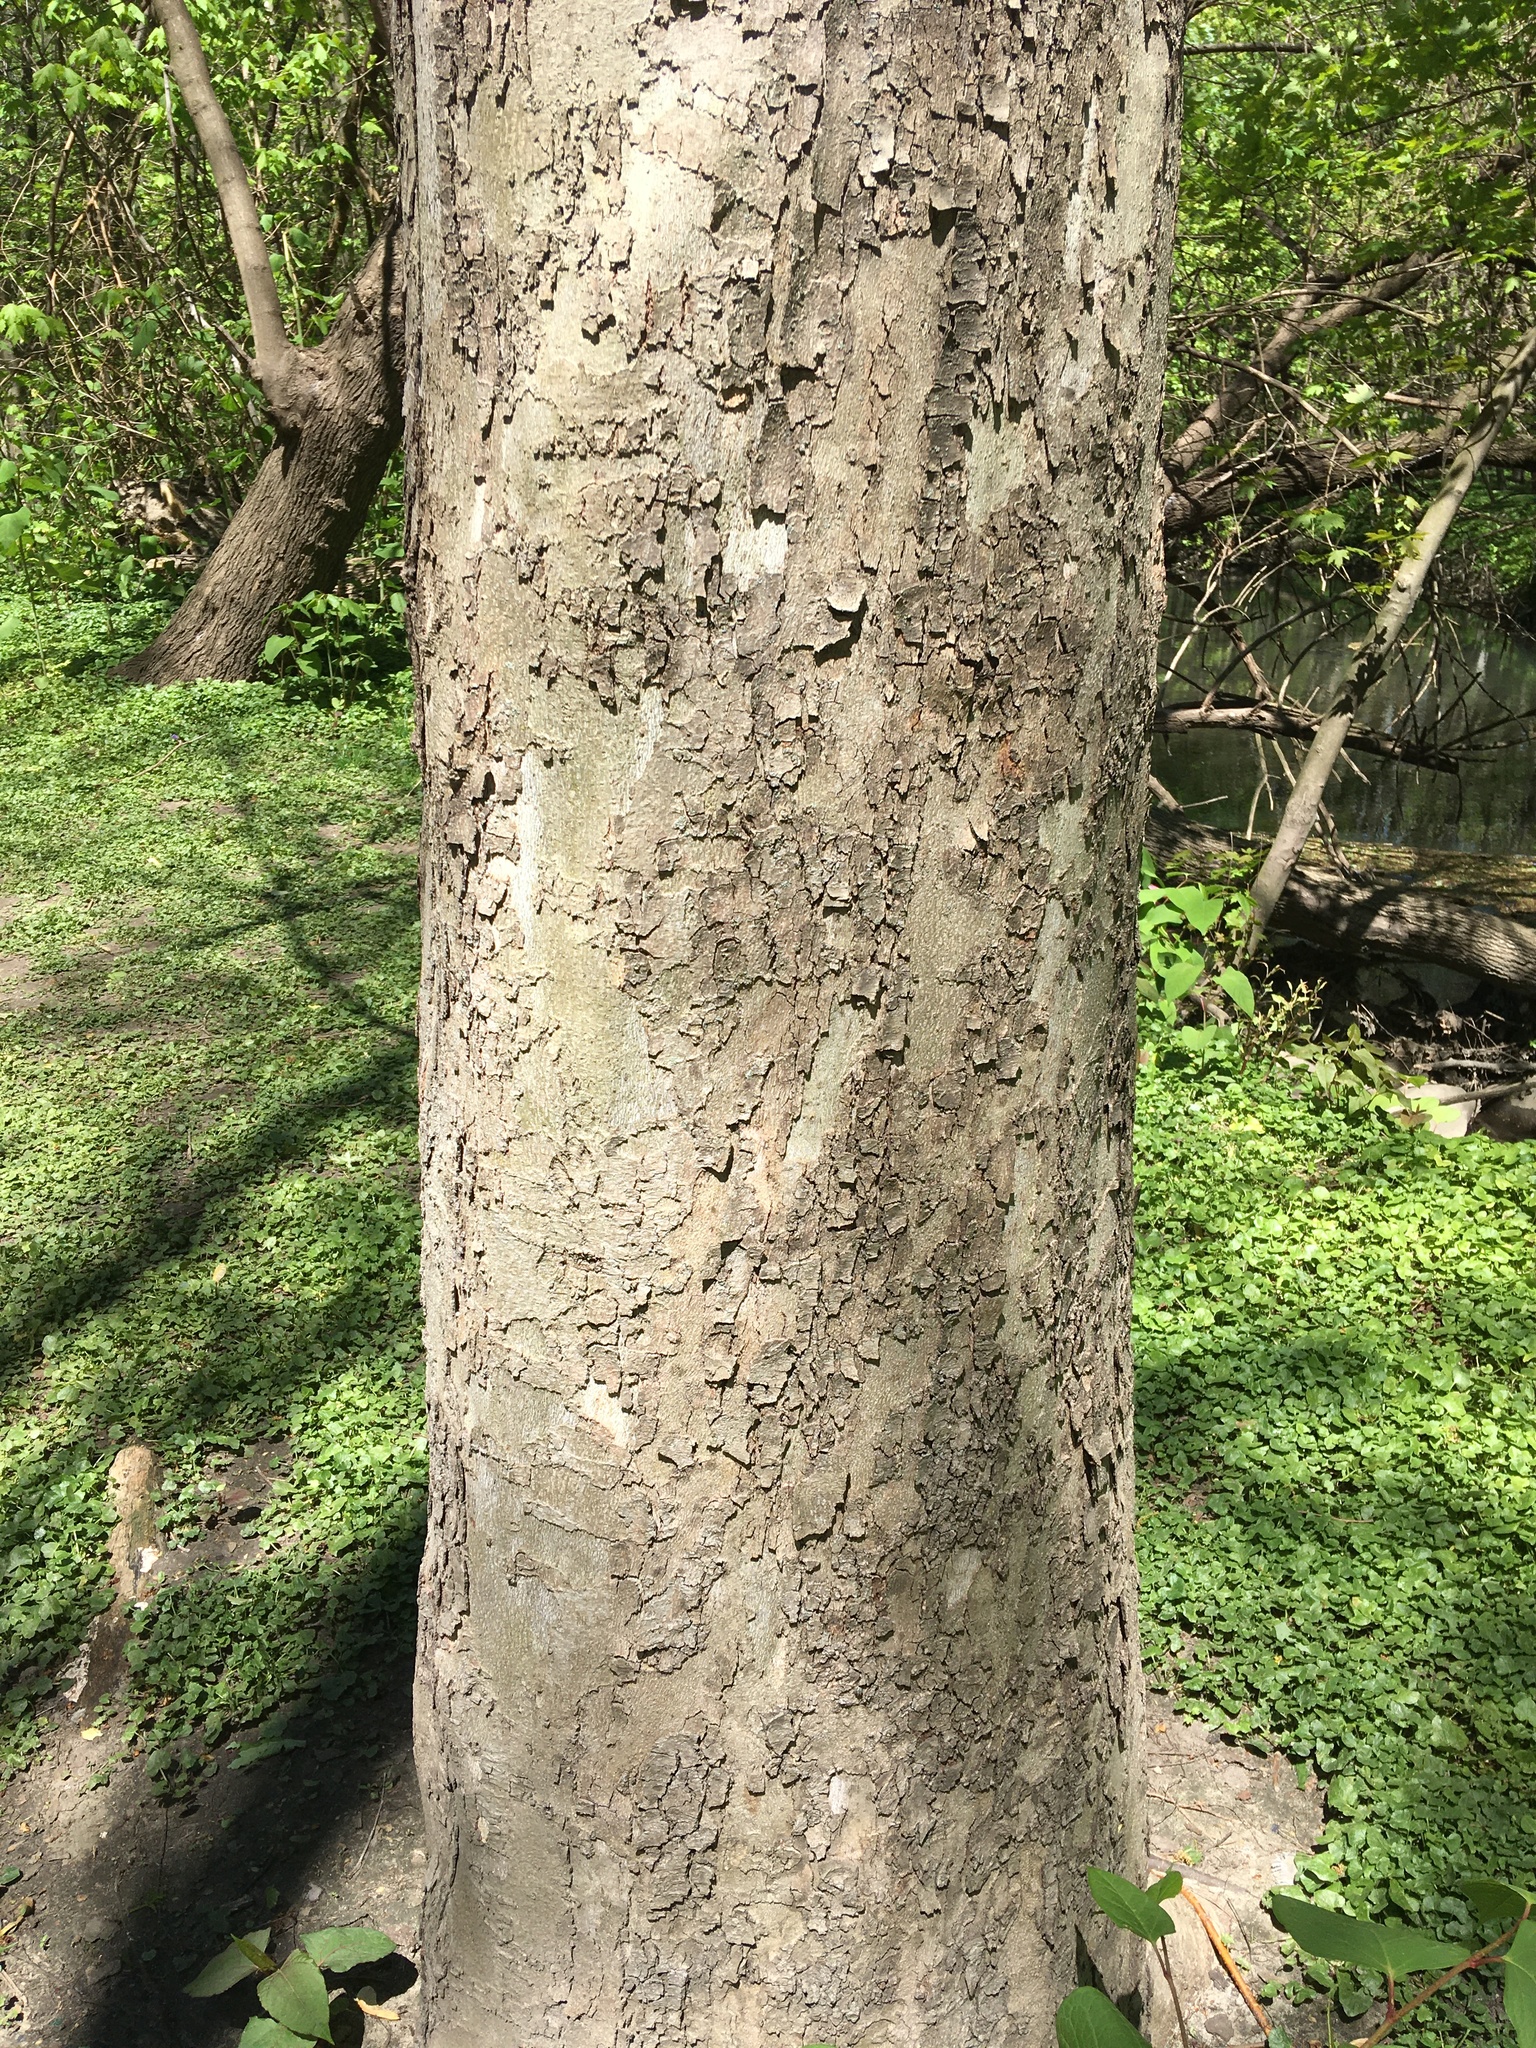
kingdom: Plantae
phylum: Tracheophyta
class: Magnoliopsida
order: Proteales
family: Platanaceae
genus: Platanus
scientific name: Platanus occidentalis
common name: American sycamore
